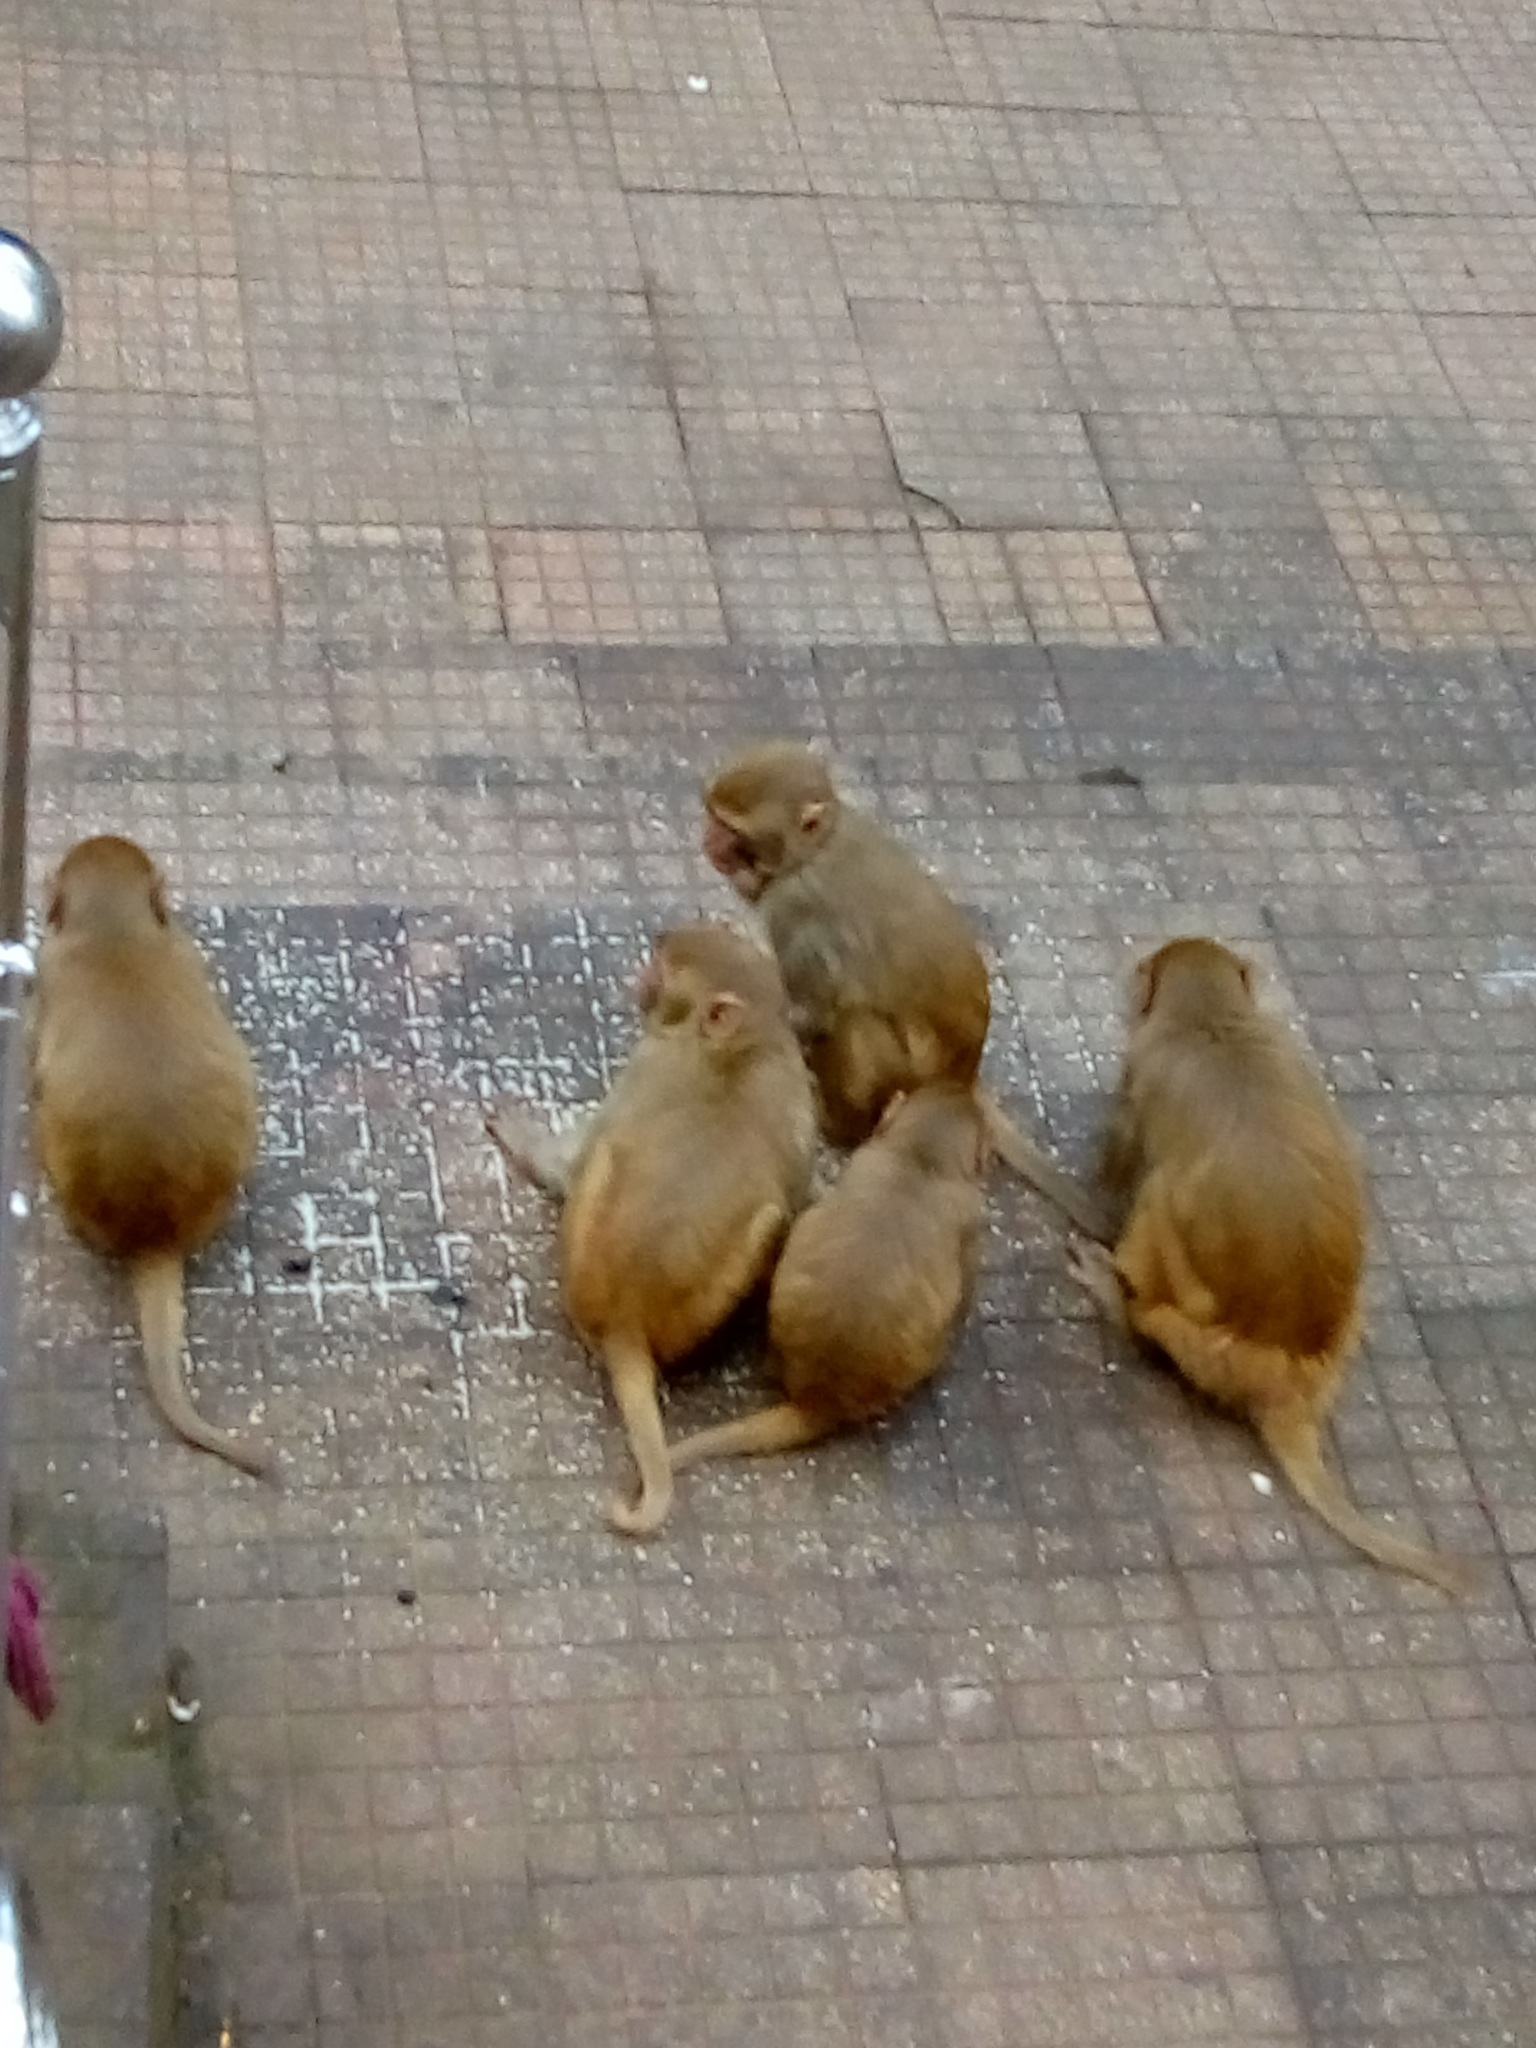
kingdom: Animalia
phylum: Chordata
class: Mammalia
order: Primates
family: Cercopithecidae
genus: Macaca
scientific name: Macaca mulatta
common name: Rhesus monkey
